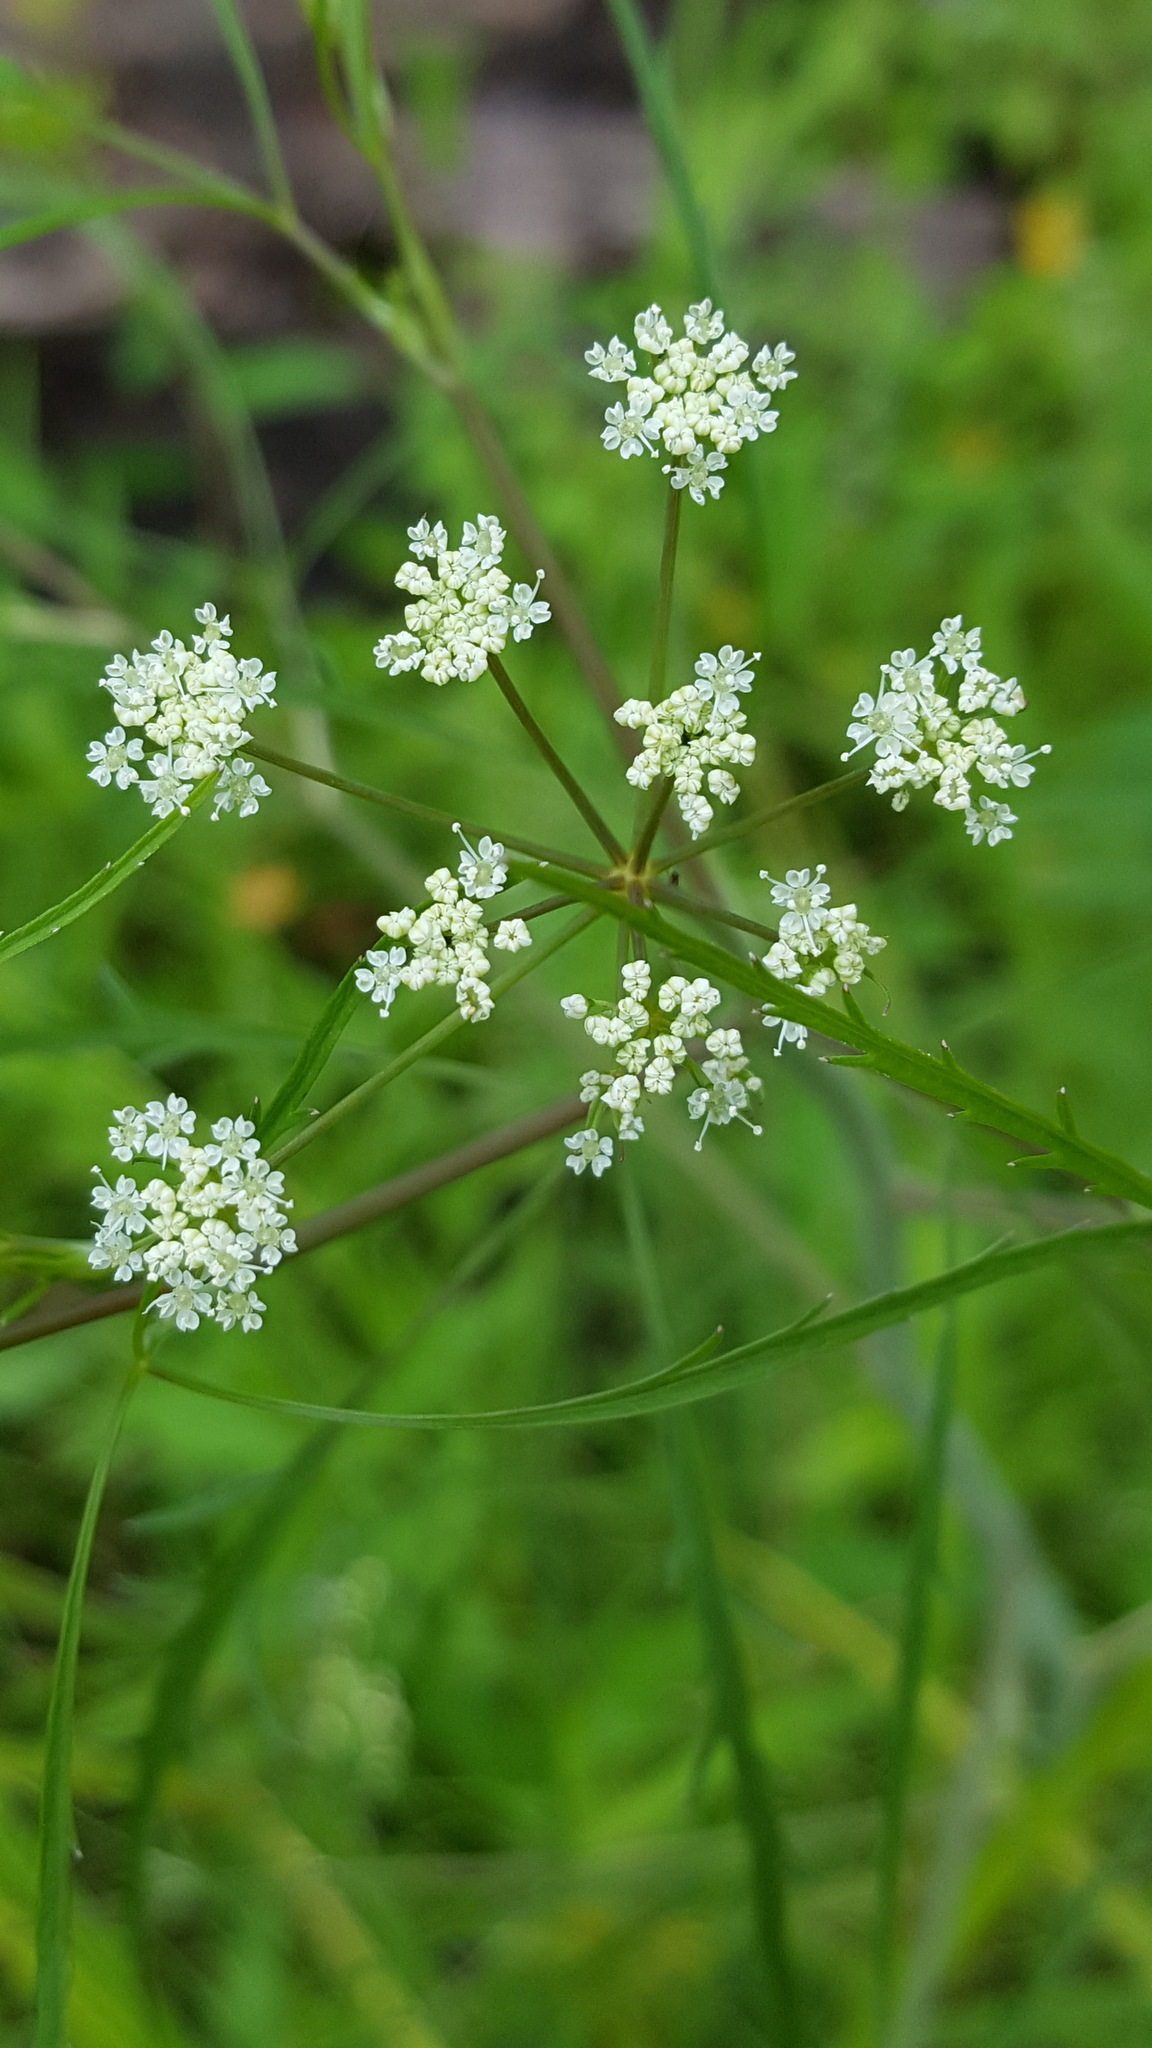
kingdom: Plantae
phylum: Tracheophyta
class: Magnoliopsida
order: Apiales
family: Apiaceae
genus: Cicuta
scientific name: Cicuta bulbifera
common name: Bulb-bearing water-hemlock
